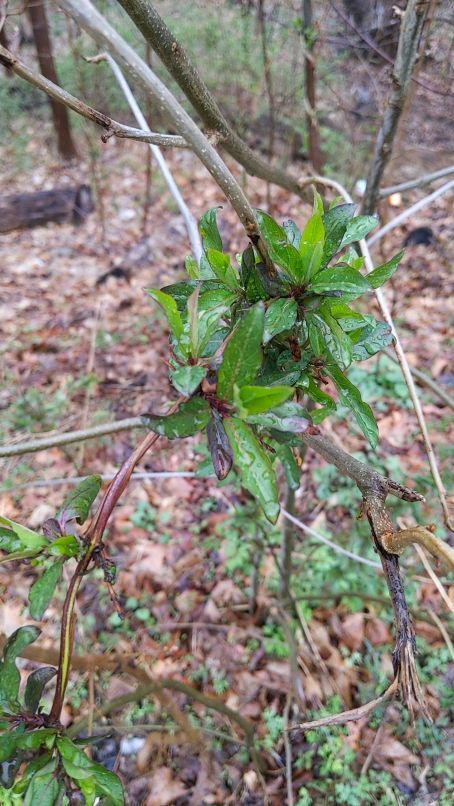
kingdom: Plantae
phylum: Tracheophyta
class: Magnoliopsida
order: Dipsacales
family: Caprifoliaceae
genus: Lonicera
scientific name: Lonicera japonica
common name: Japanese honeysuckle
